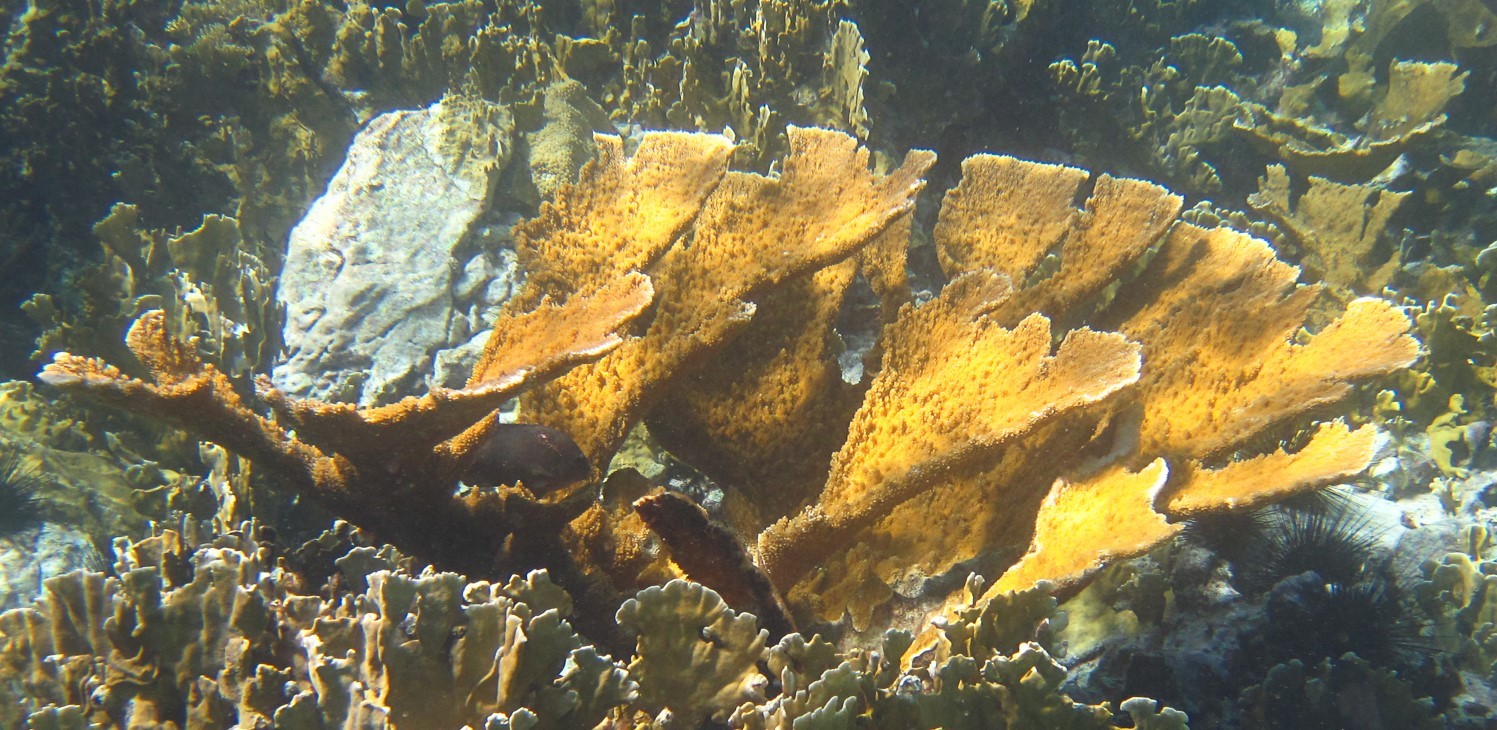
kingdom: Animalia
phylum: Cnidaria
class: Anthozoa
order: Scleractinia
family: Acroporidae
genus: Acropora
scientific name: Acropora palmata
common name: Elkhorn coral
